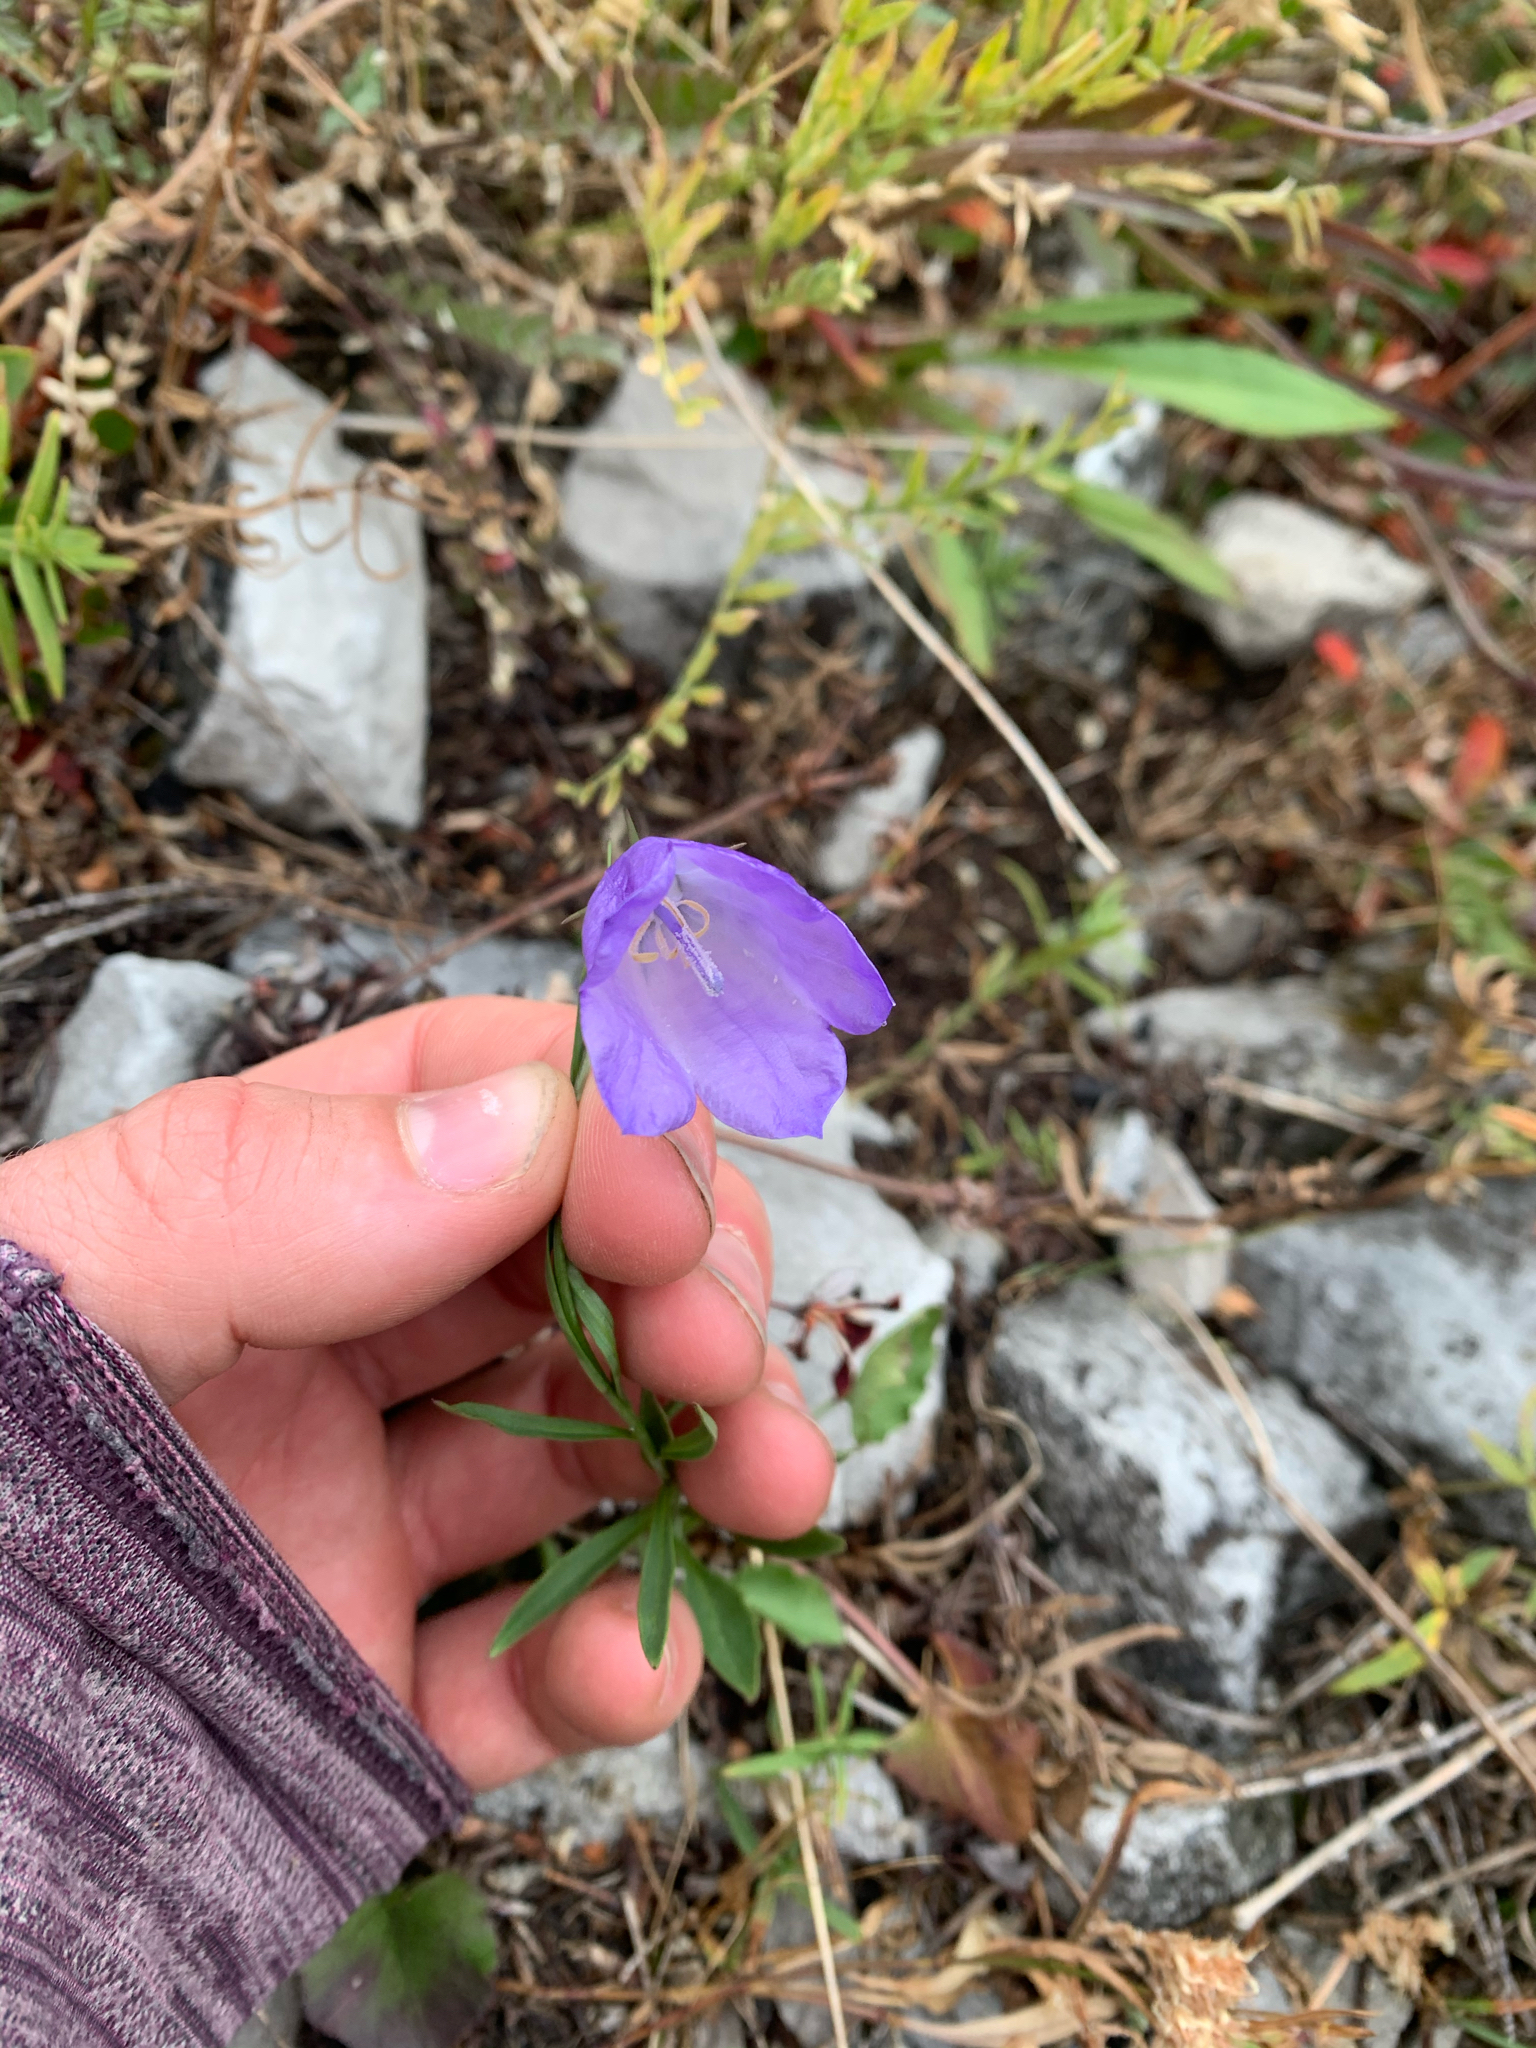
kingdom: Plantae
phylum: Tracheophyta
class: Magnoliopsida
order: Asterales
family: Campanulaceae
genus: Campanula
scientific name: Campanula alaskana
